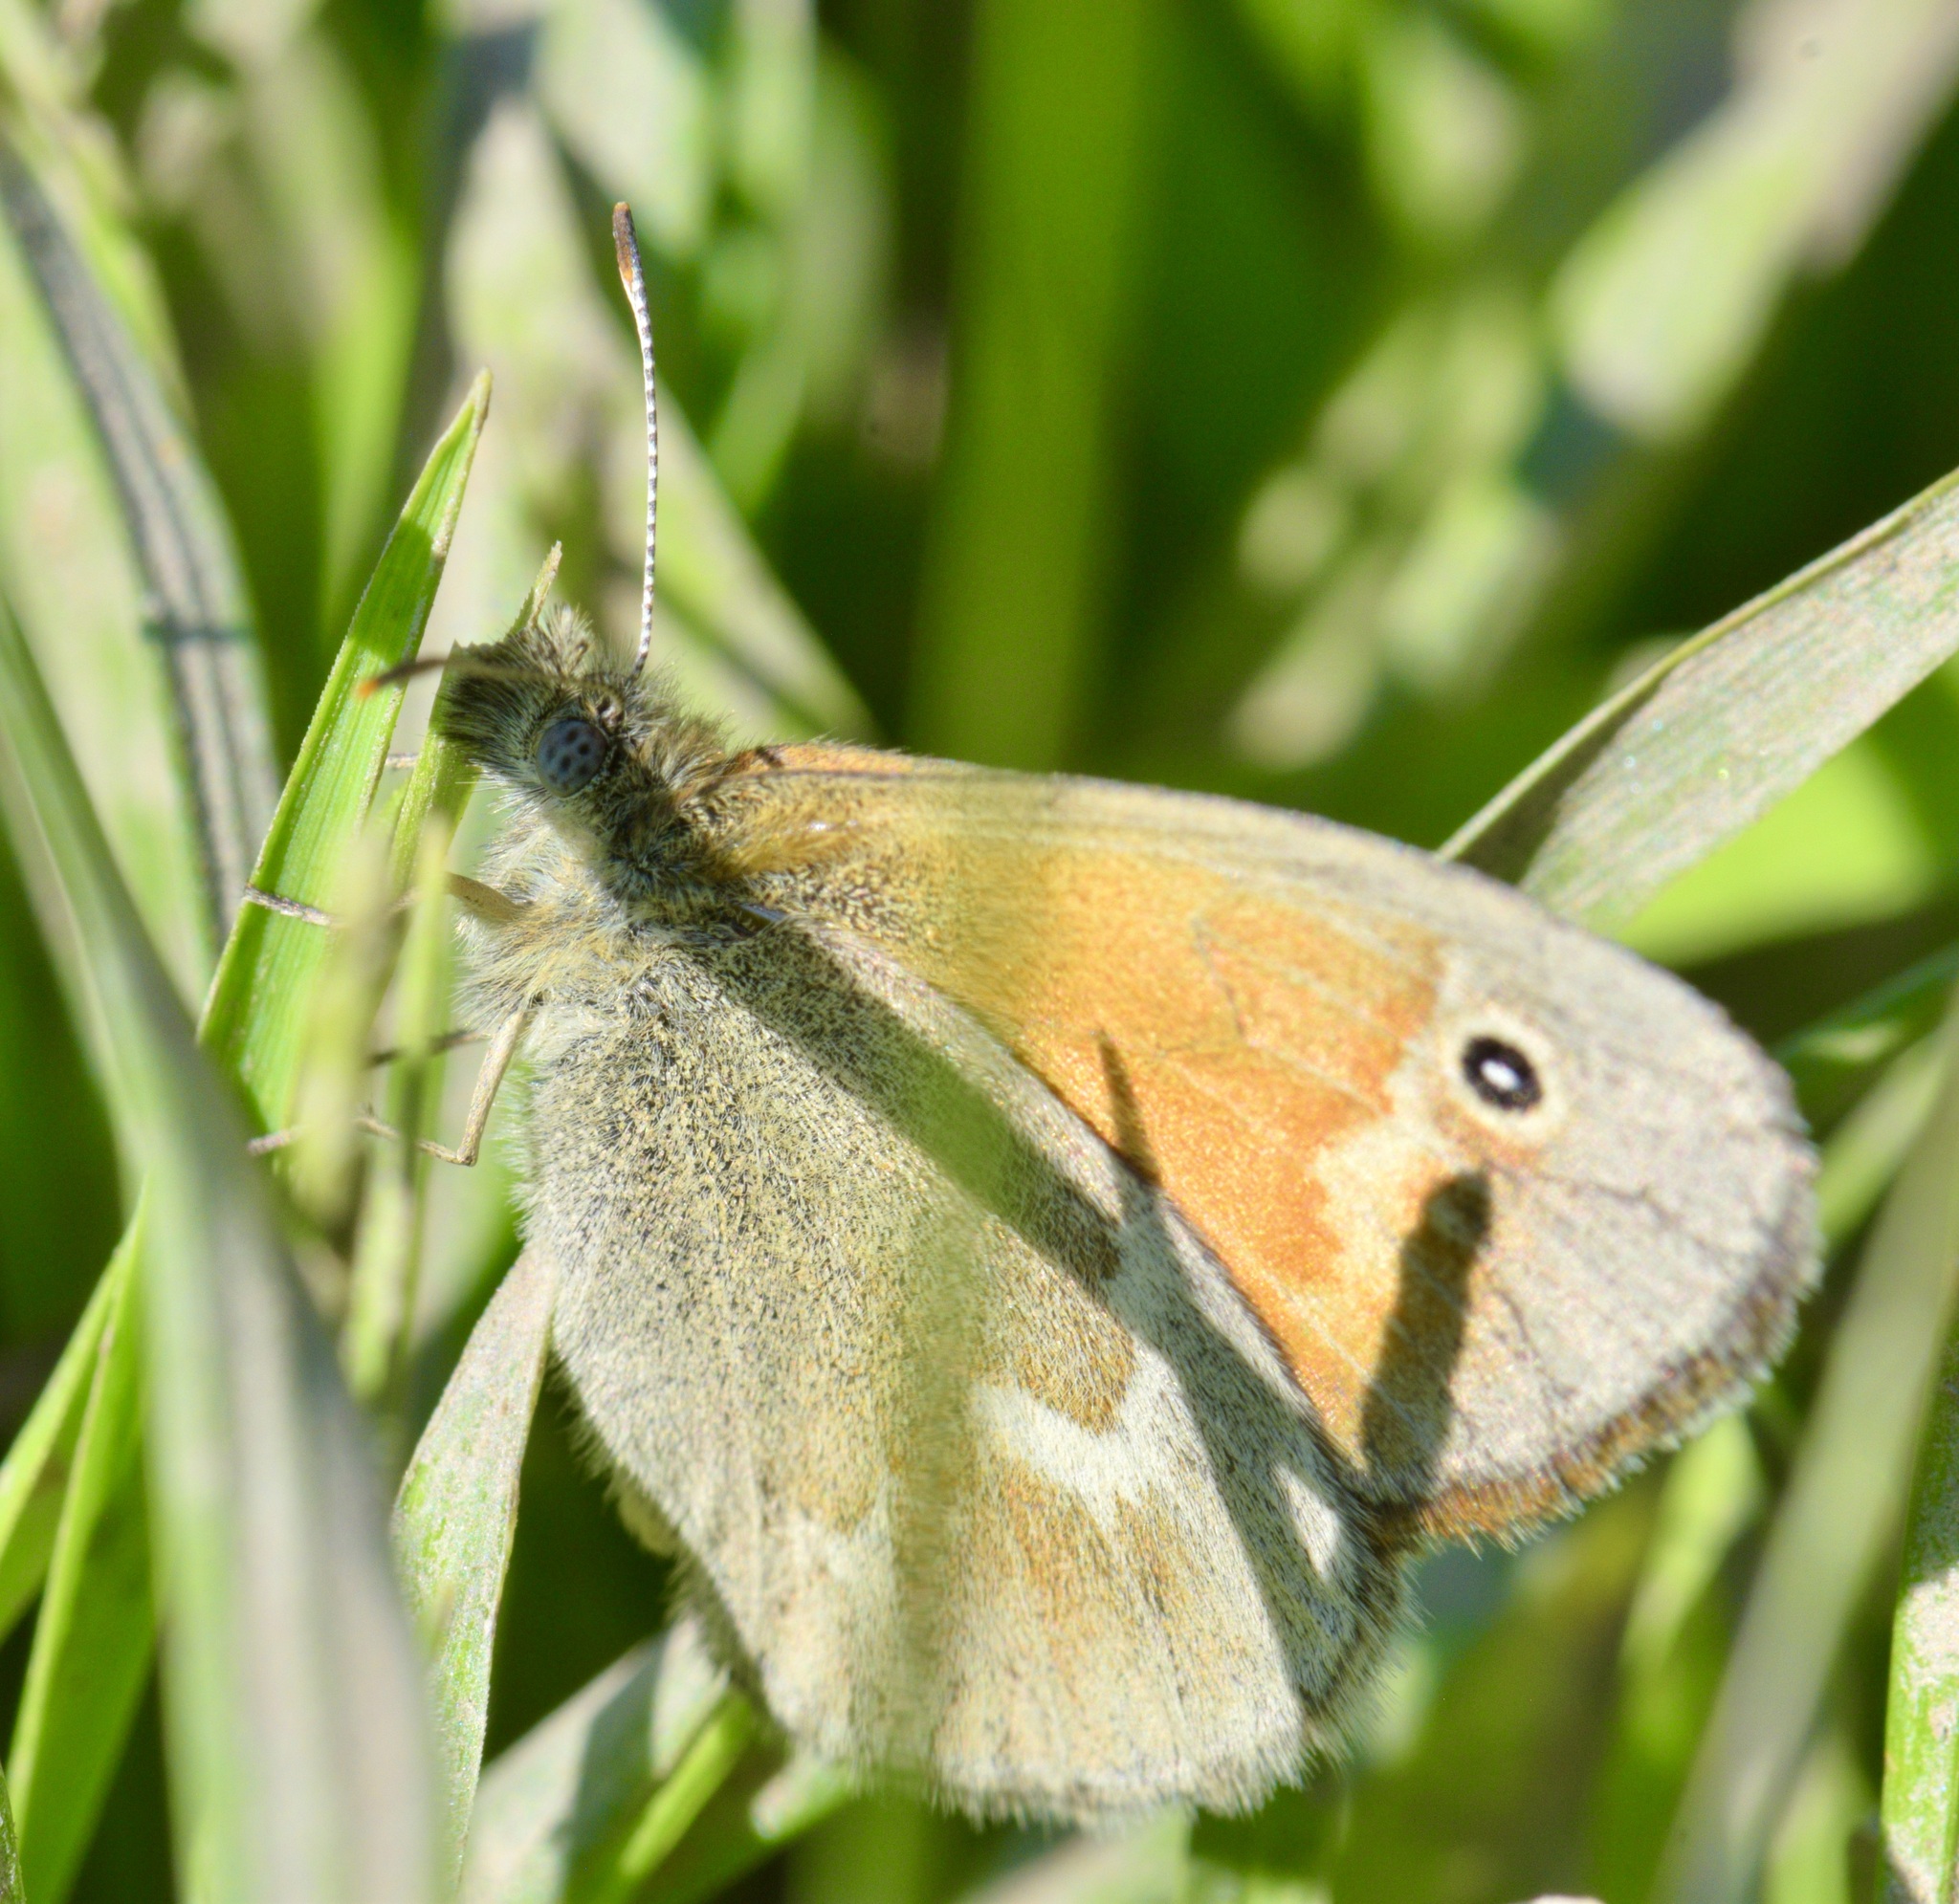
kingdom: Animalia
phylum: Arthropoda
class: Insecta
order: Lepidoptera
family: Nymphalidae
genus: Coenonympha
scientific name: Coenonympha california
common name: Common ringlet
